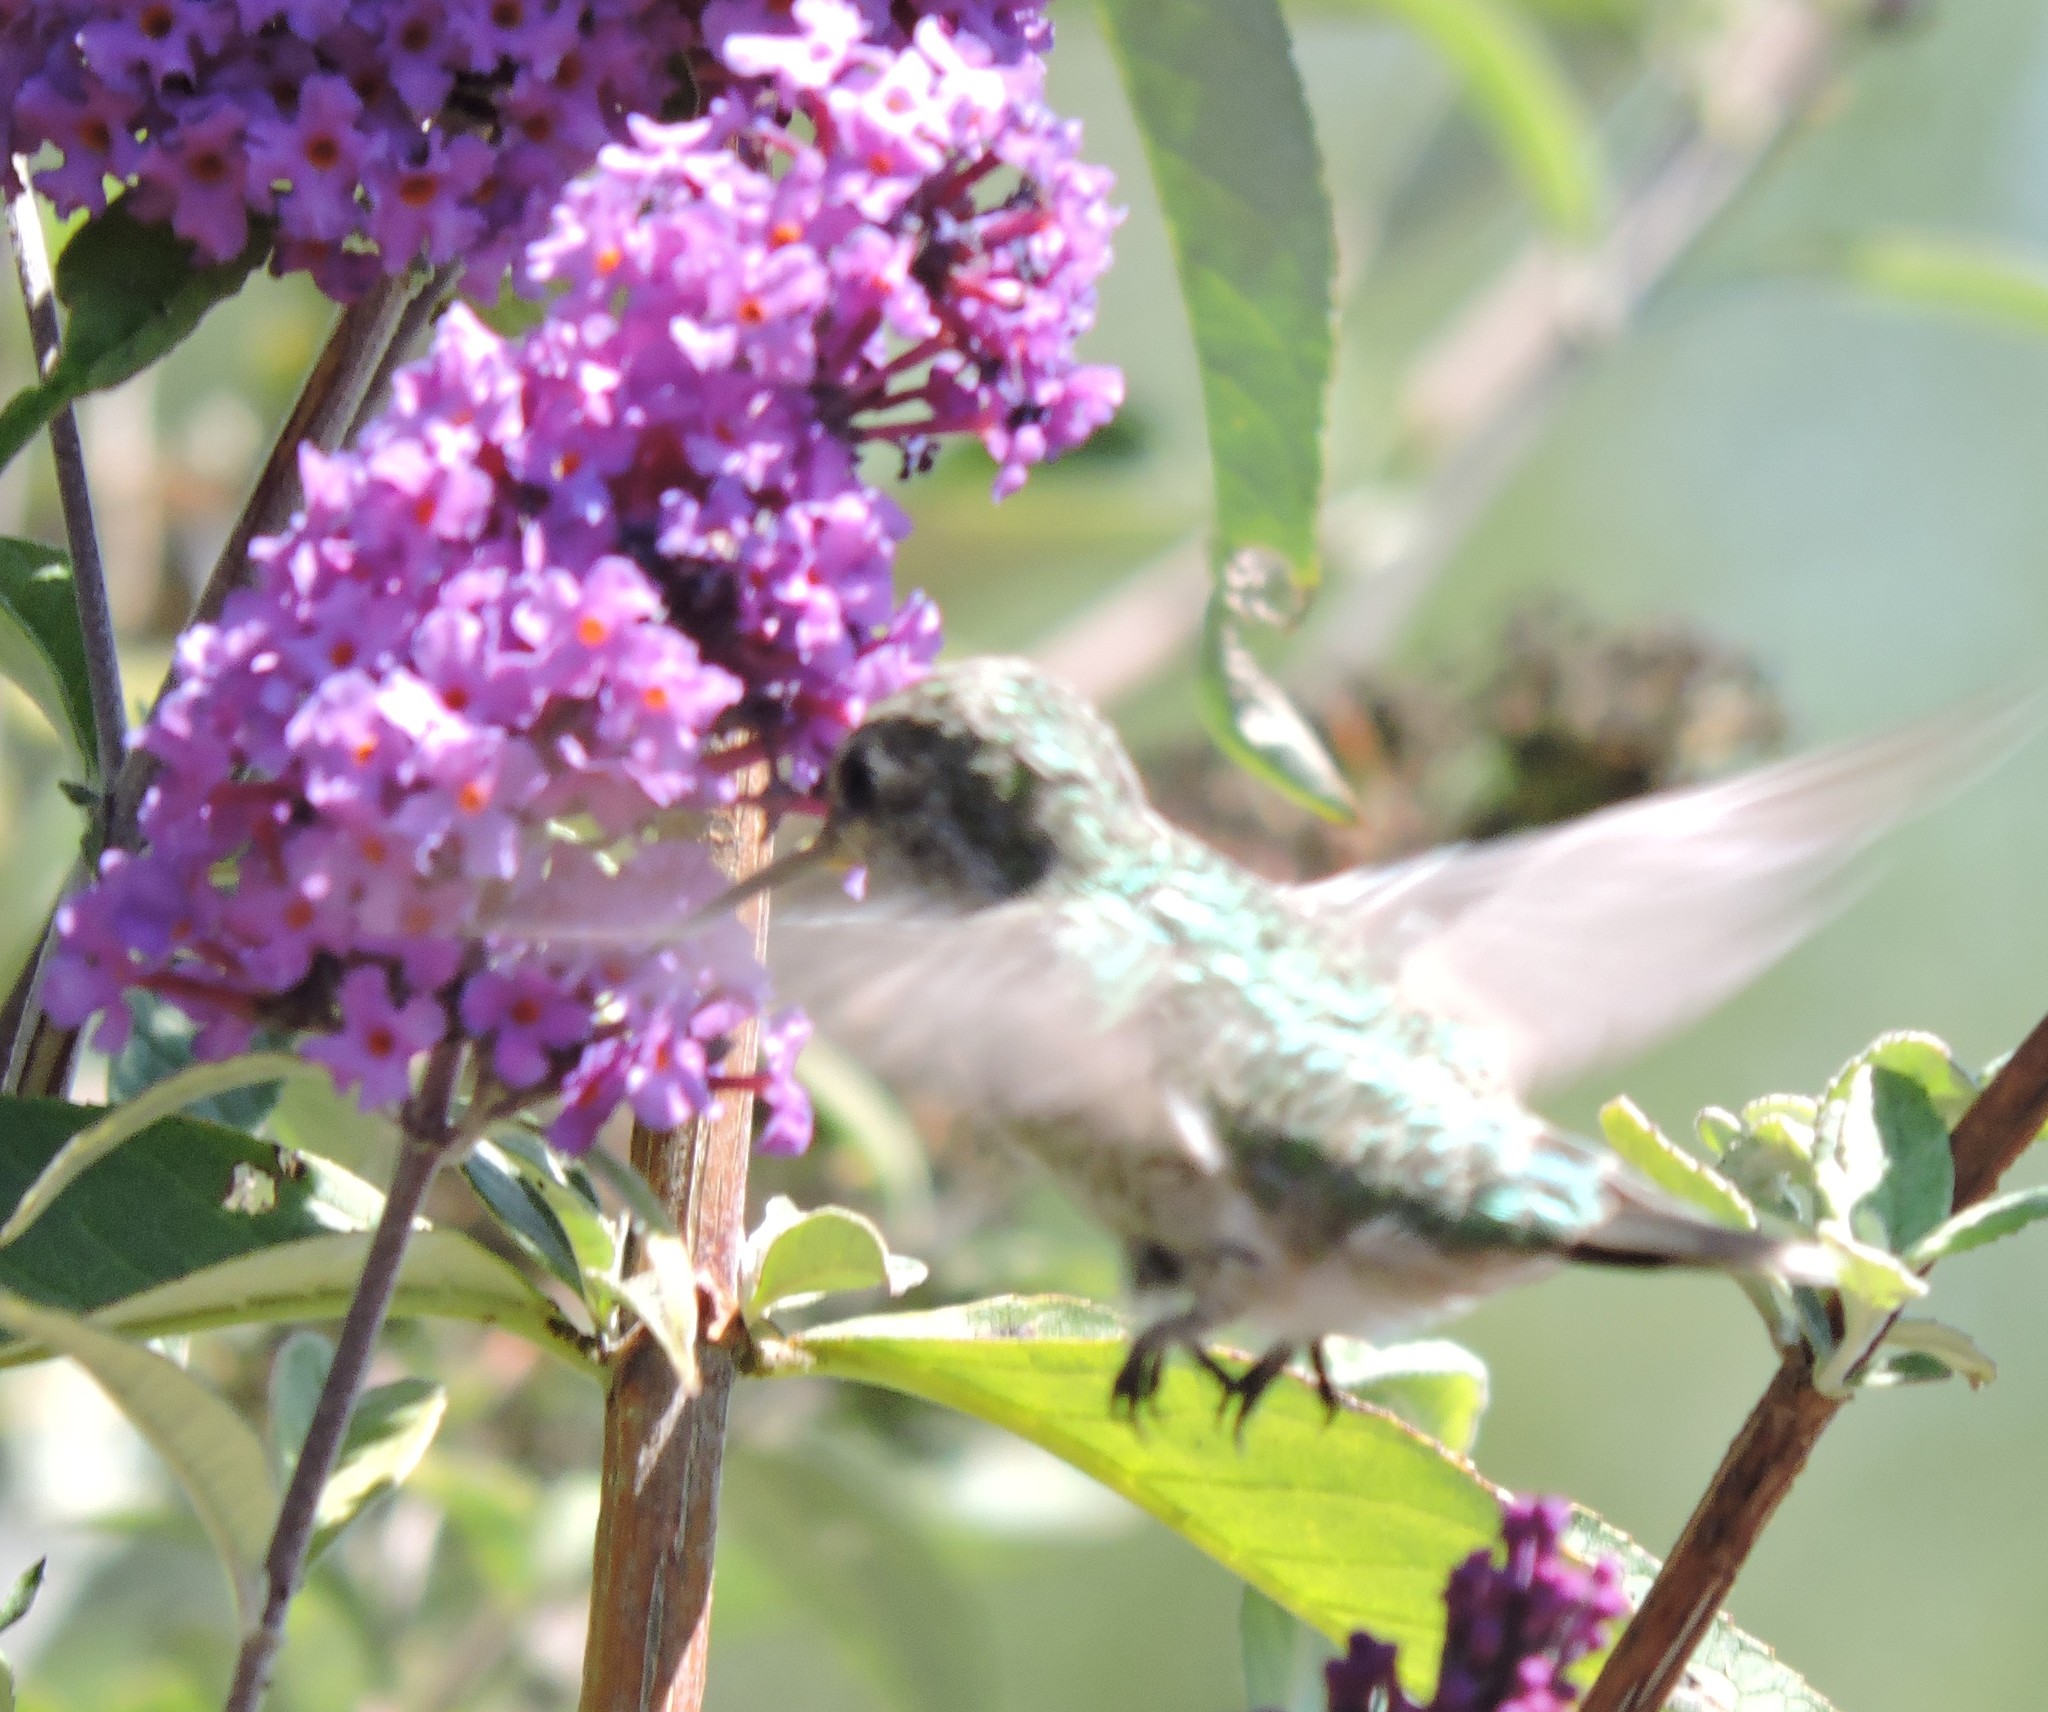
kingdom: Animalia
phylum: Chordata
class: Aves
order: Apodiformes
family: Trochilidae
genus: Calypte
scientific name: Calypte anna
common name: Anna's hummingbird
